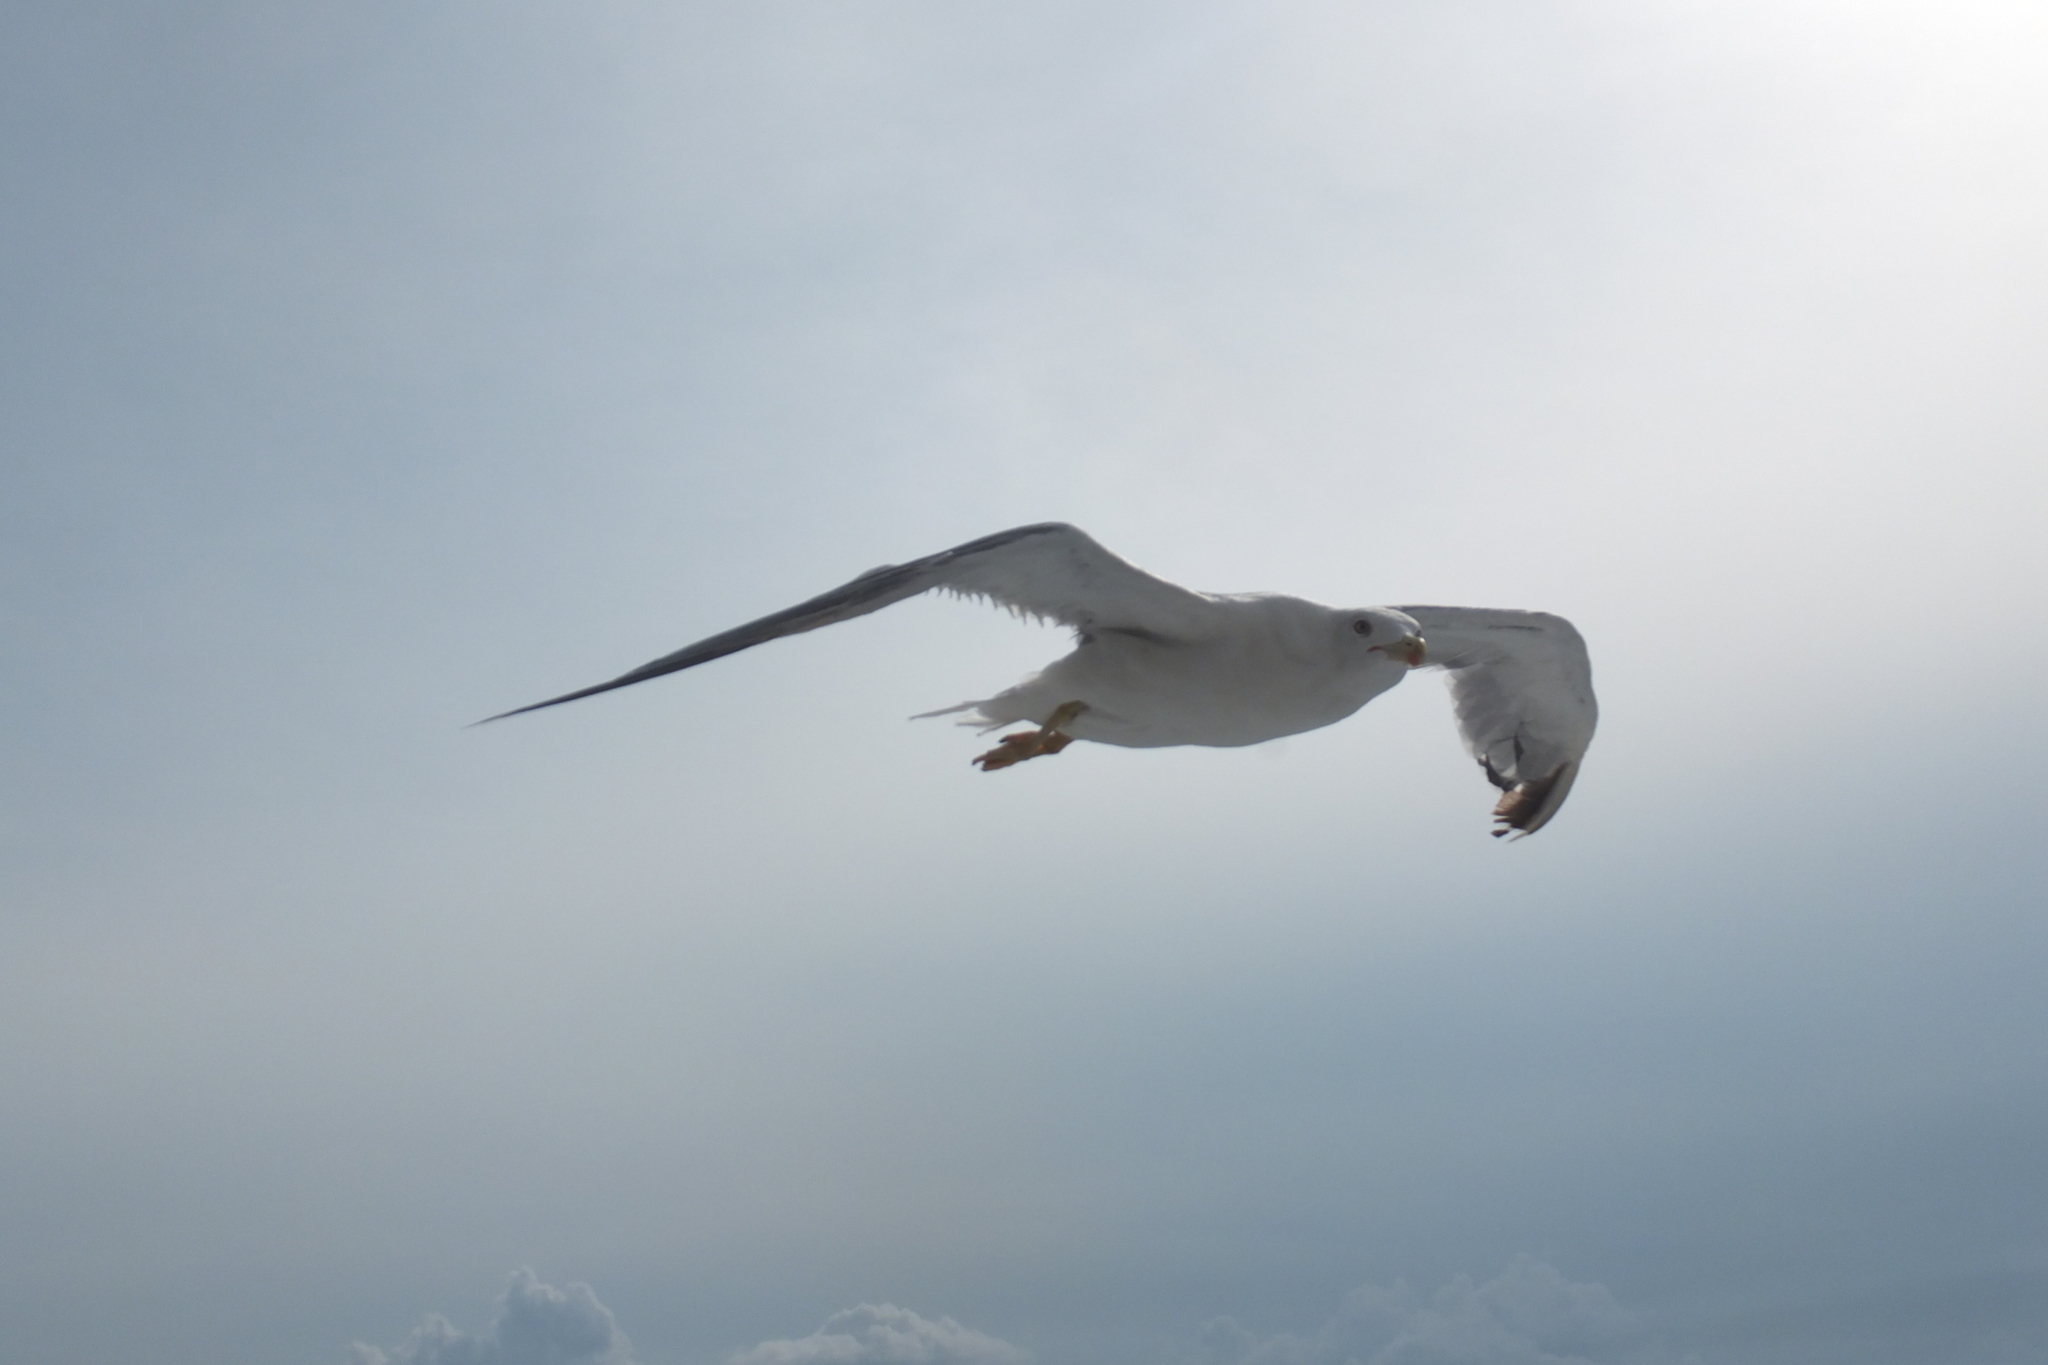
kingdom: Animalia
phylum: Chordata
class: Aves
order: Charadriiformes
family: Laridae
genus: Larus
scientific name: Larus michahellis
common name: Yellow-legged gull
